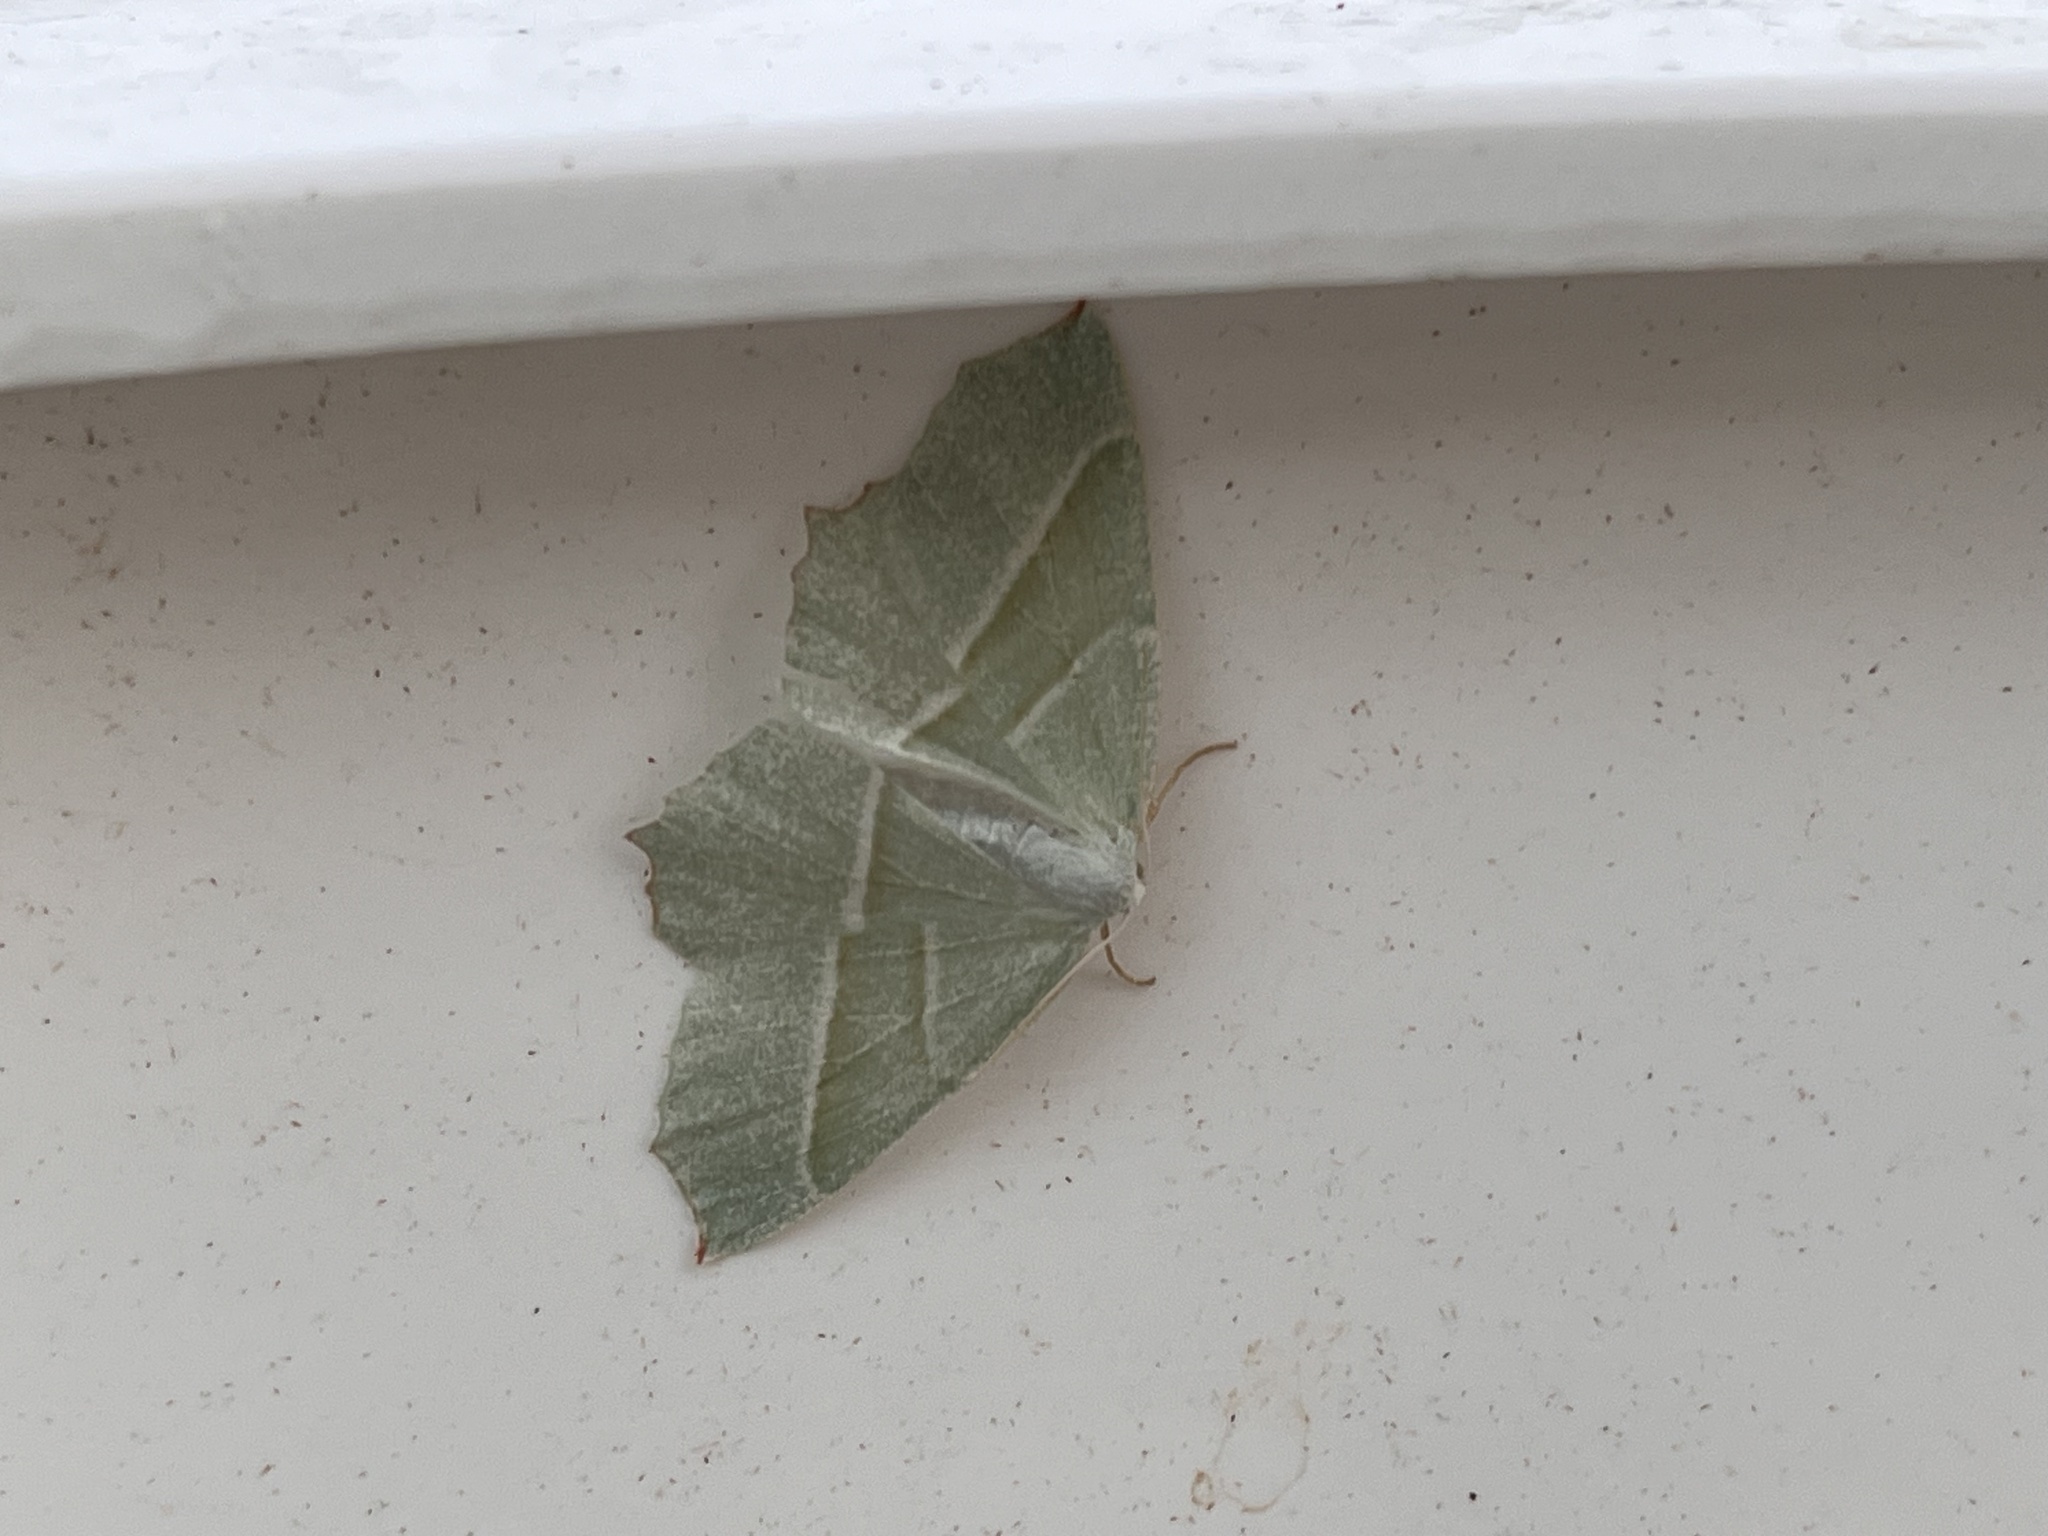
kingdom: Animalia
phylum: Arthropoda
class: Insecta
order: Lepidoptera
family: Geometridae
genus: Campaea
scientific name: Campaea margaritaria
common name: Light emerald
